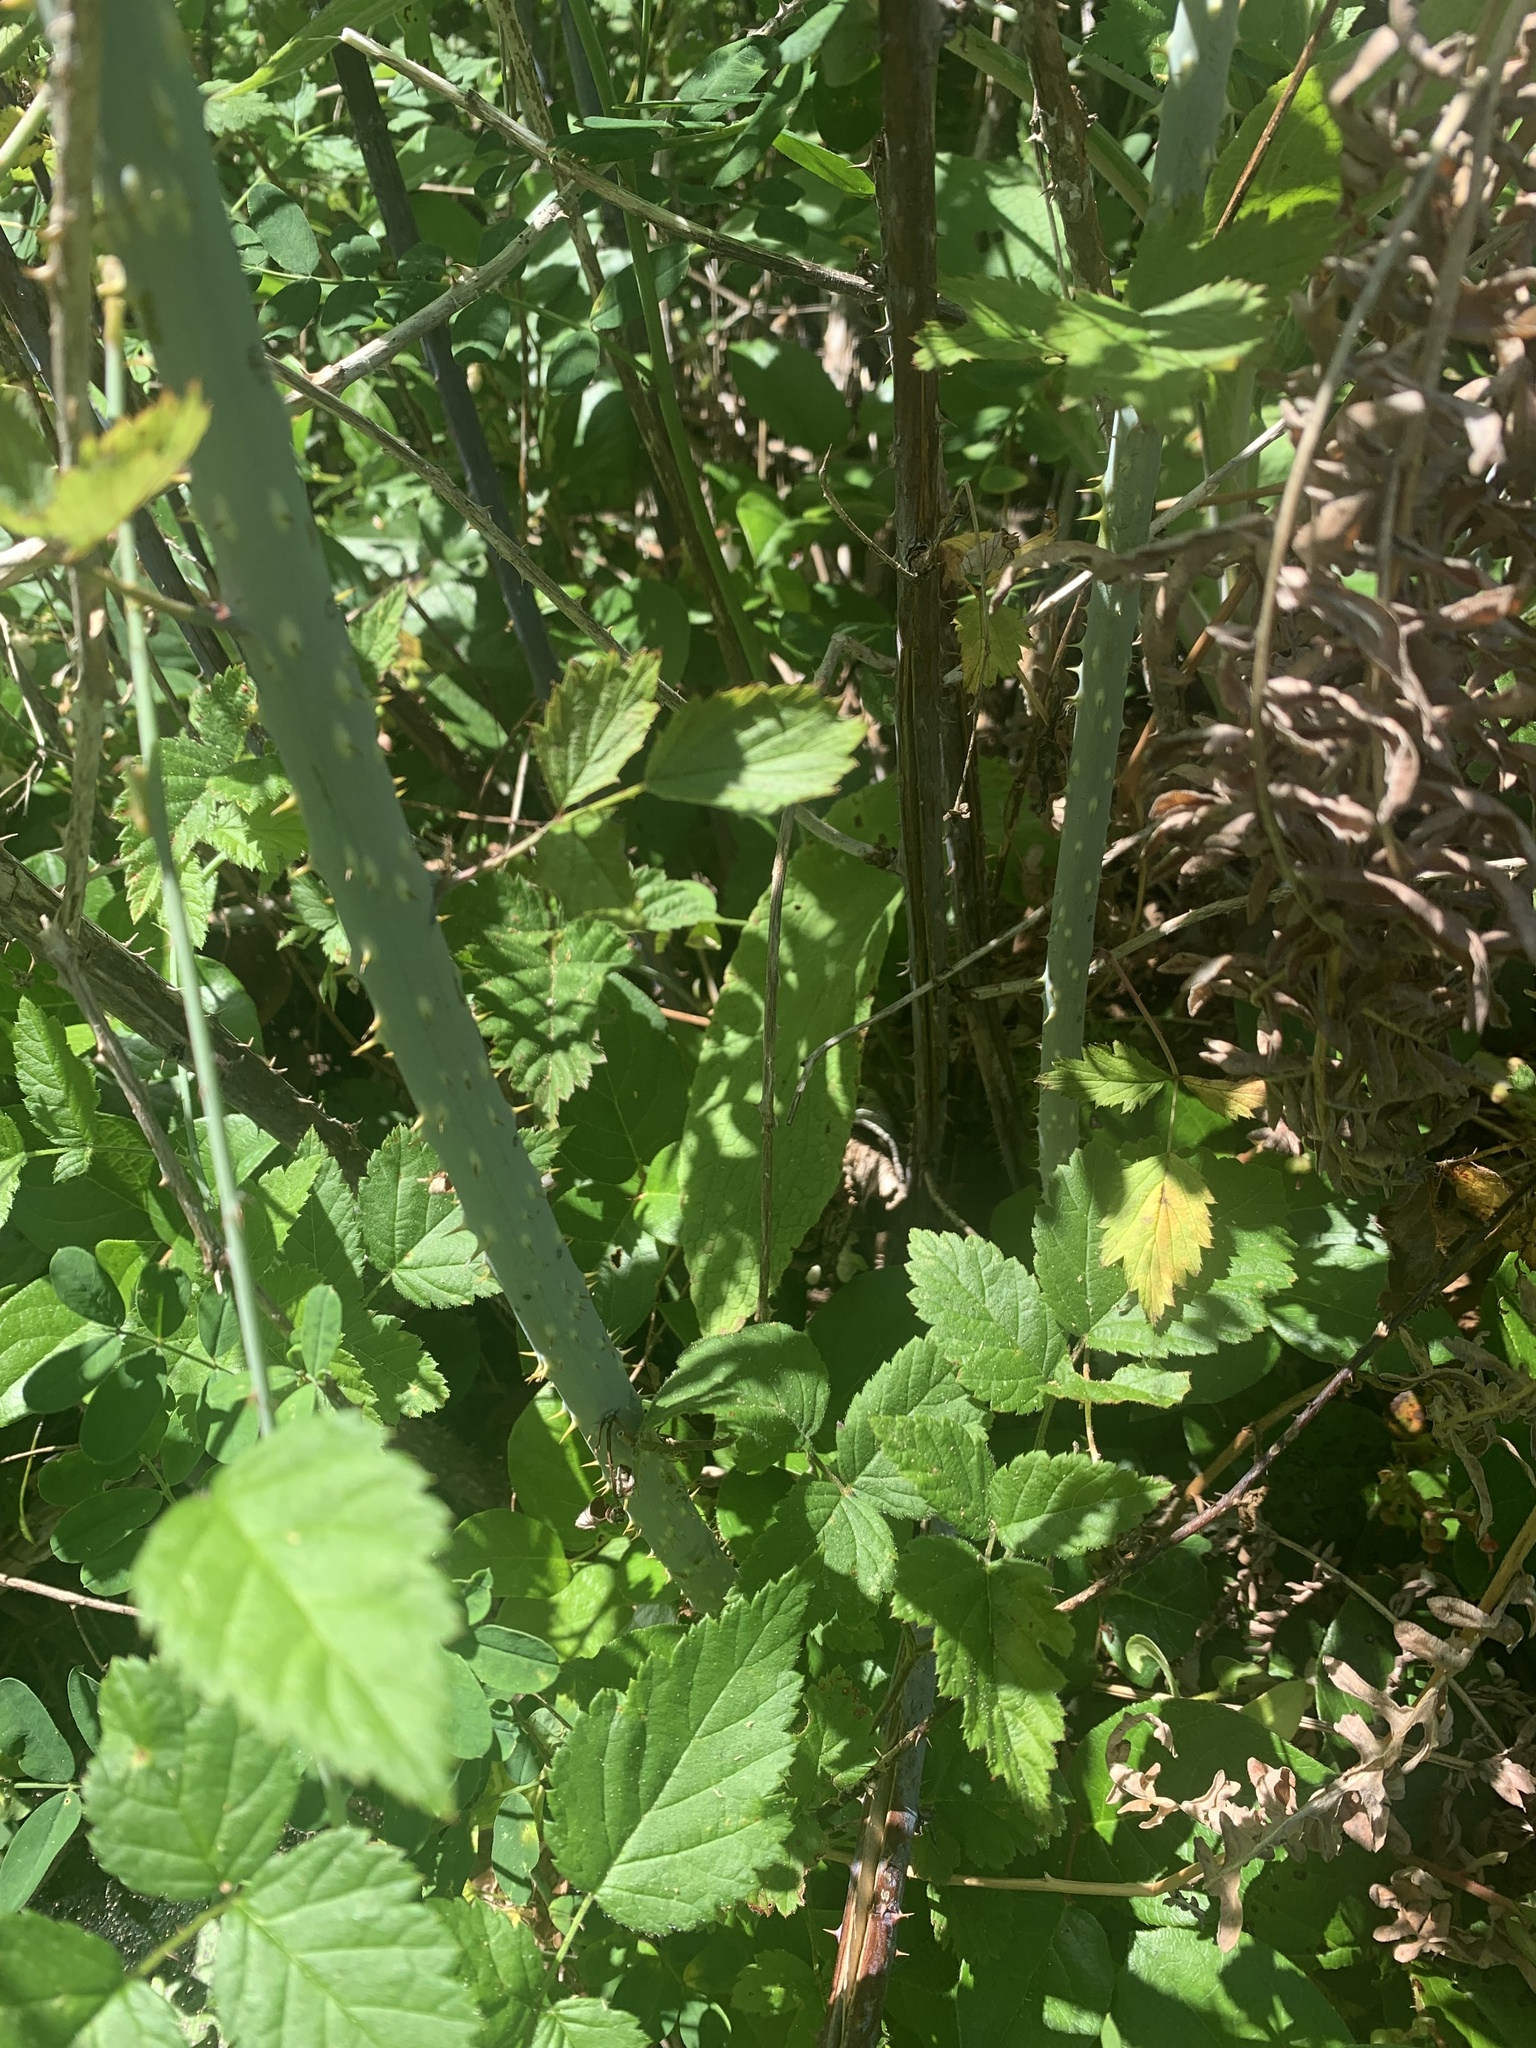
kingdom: Plantae
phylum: Tracheophyta
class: Magnoliopsida
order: Rosales
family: Rosaceae
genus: Rubus
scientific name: Rubus leucodermis
